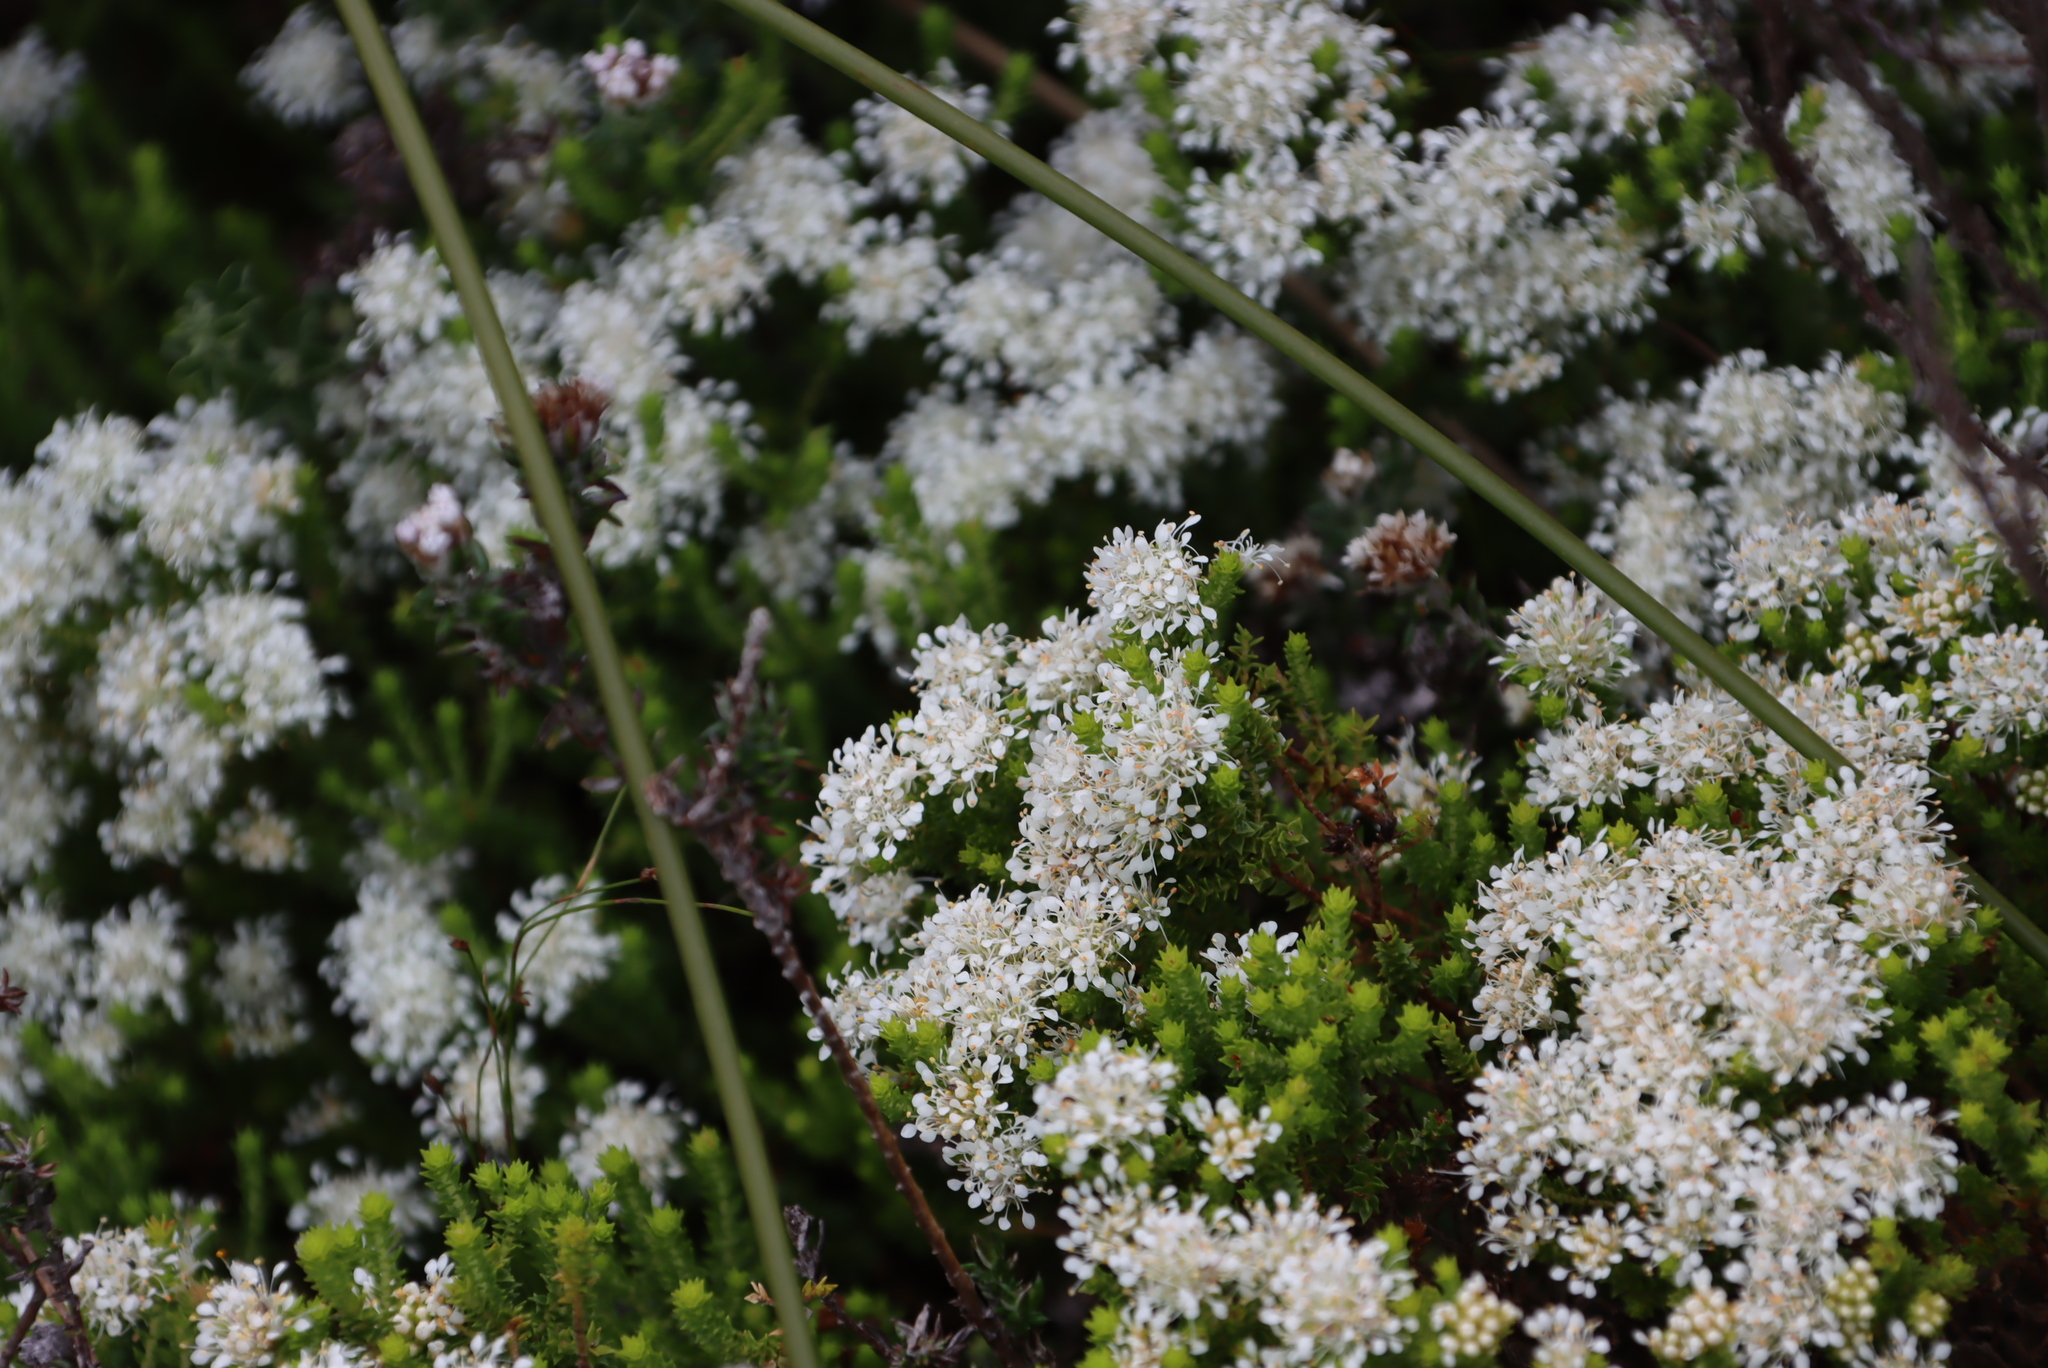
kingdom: Plantae
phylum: Tracheophyta
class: Magnoliopsida
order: Sapindales
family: Rutaceae
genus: Agathosma
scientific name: Agathosma imbricata
